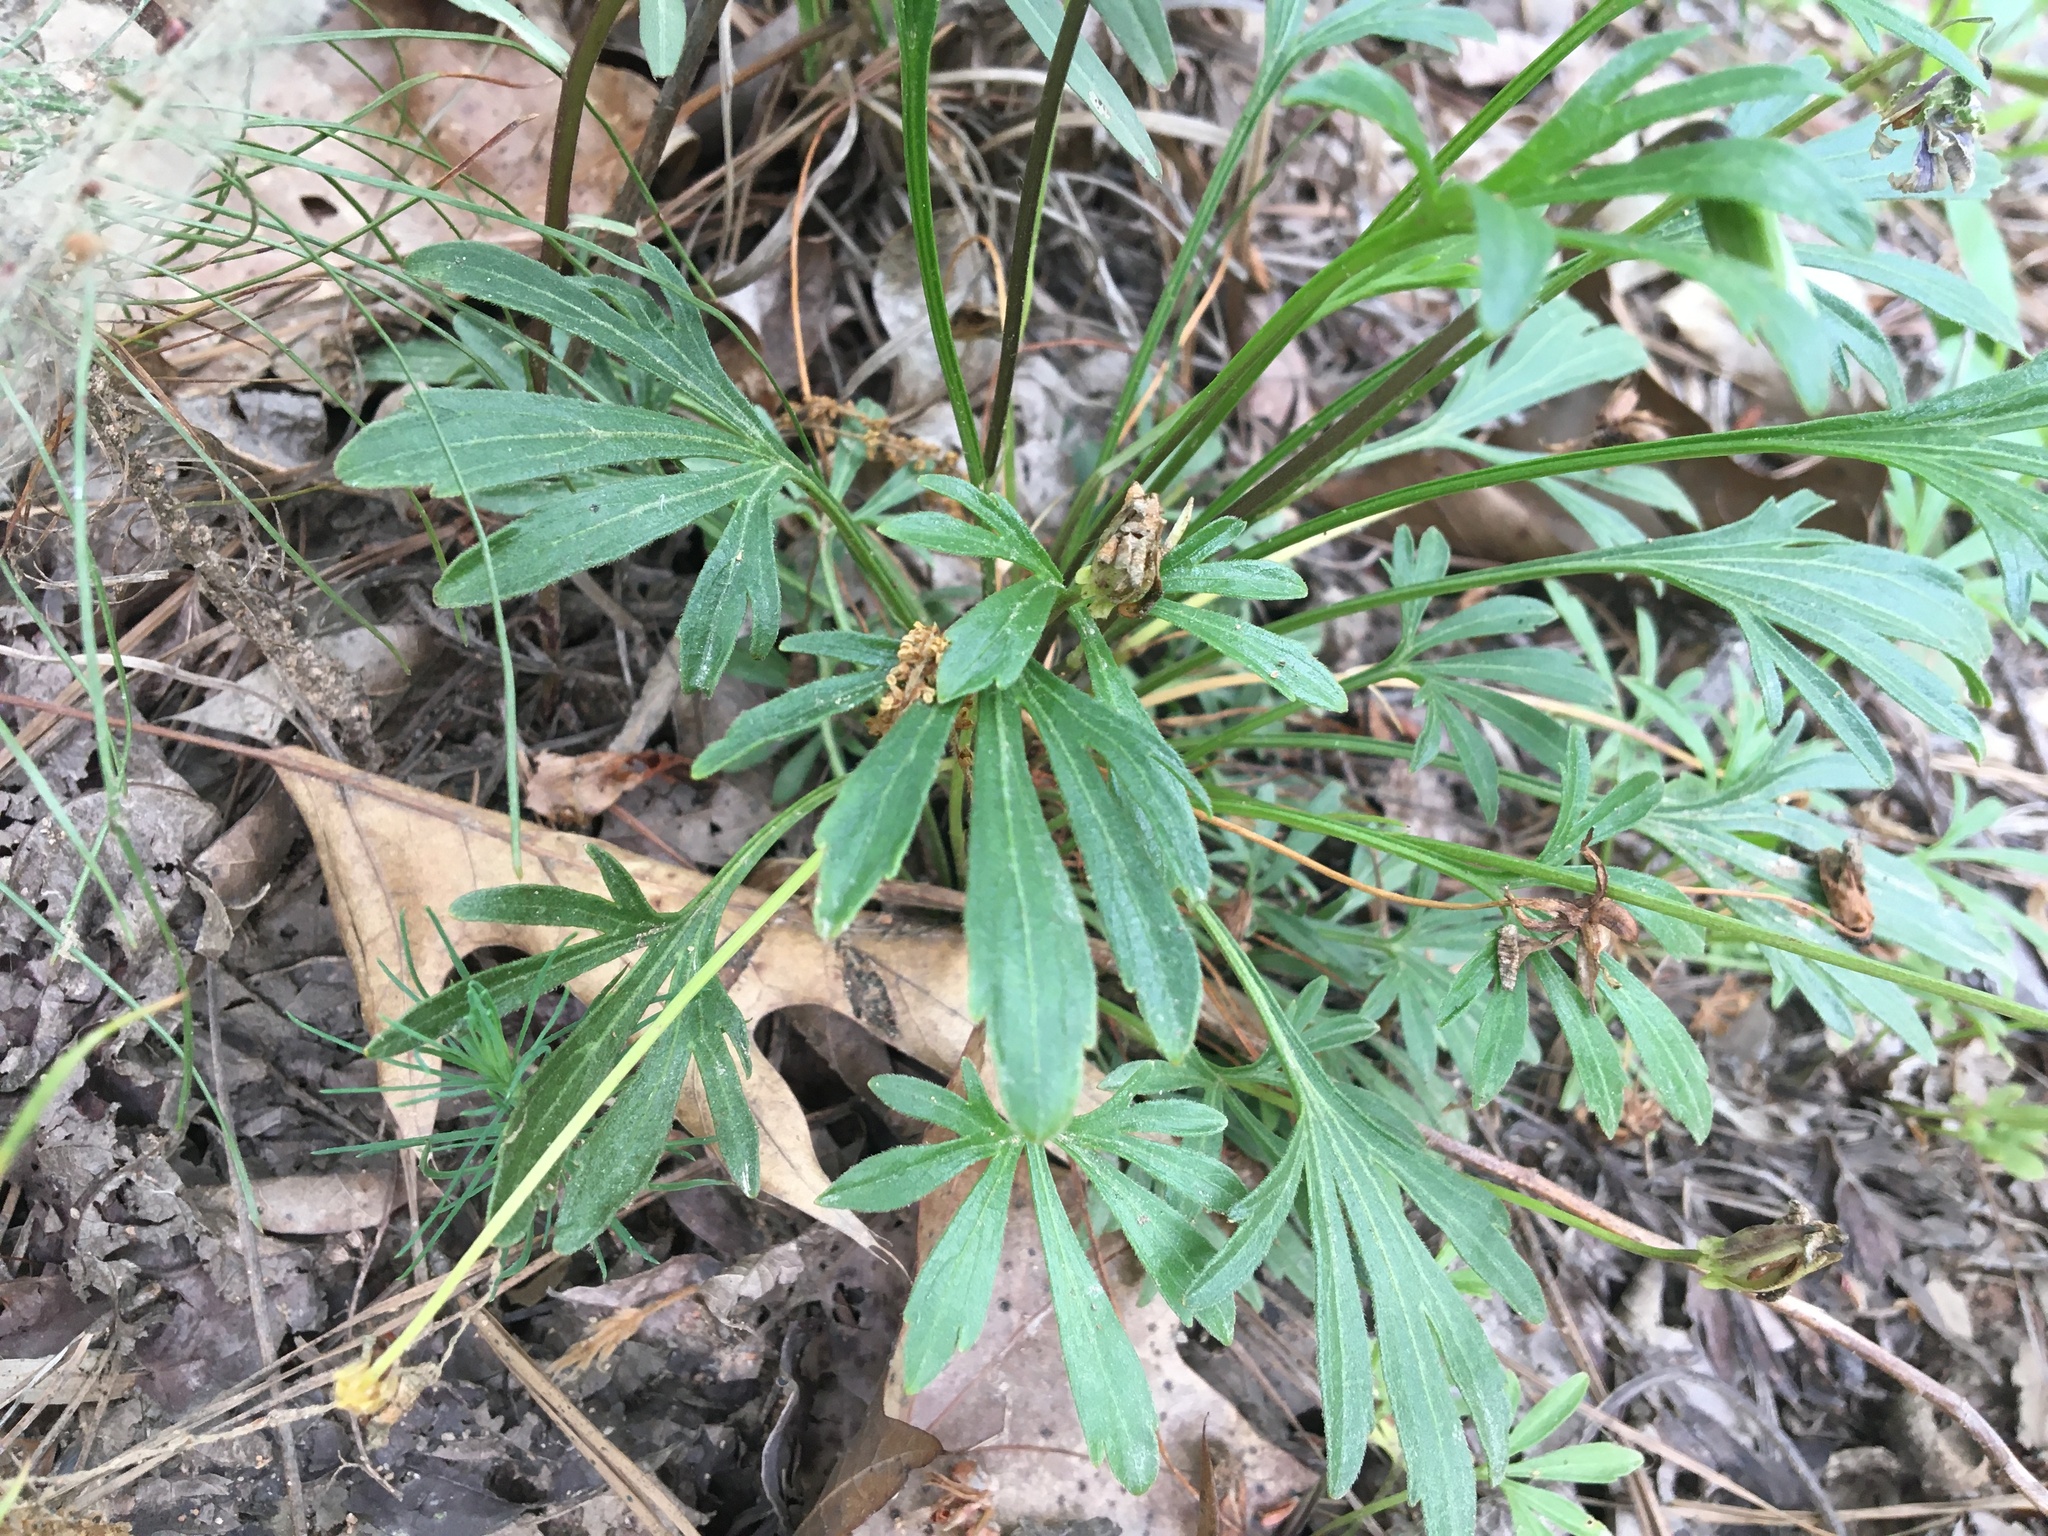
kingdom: Plantae
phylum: Tracheophyta
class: Magnoliopsida
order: Malpighiales
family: Violaceae
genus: Viola
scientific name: Viola pedata
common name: Pansy violet
